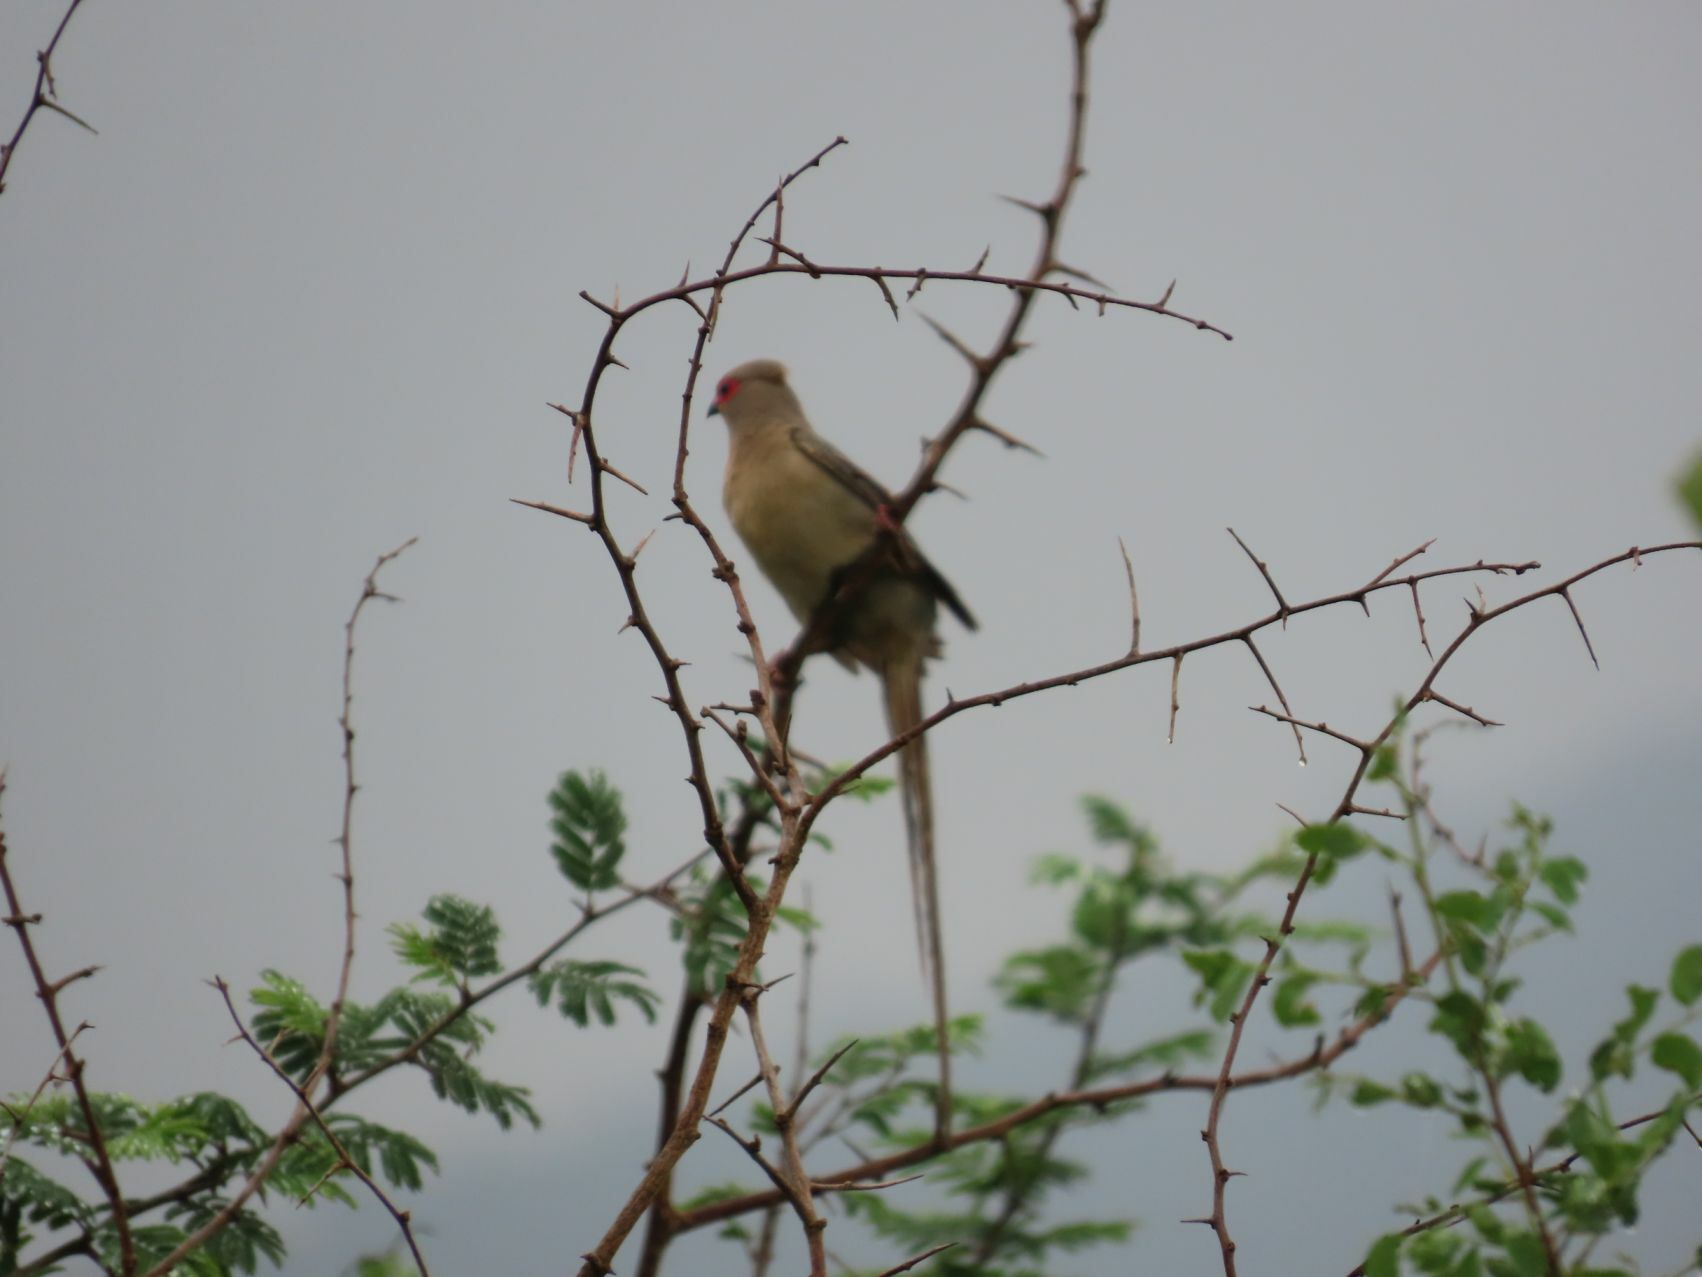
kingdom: Animalia
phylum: Chordata
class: Aves
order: Coliiformes
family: Coliidae
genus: Urocolius
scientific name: Urocolius indicus
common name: Red-faced mousebird
